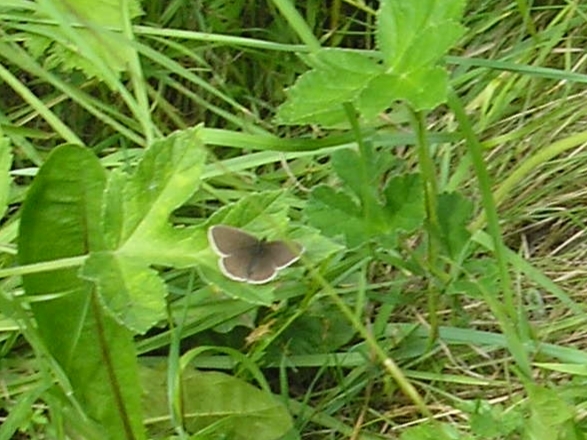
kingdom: Animalia
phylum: Arthropoda
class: Insecta
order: Lepidoptera
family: Nymphalidae
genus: Aphantopus
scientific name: Aphantopus hyperantus
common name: Ringlet
